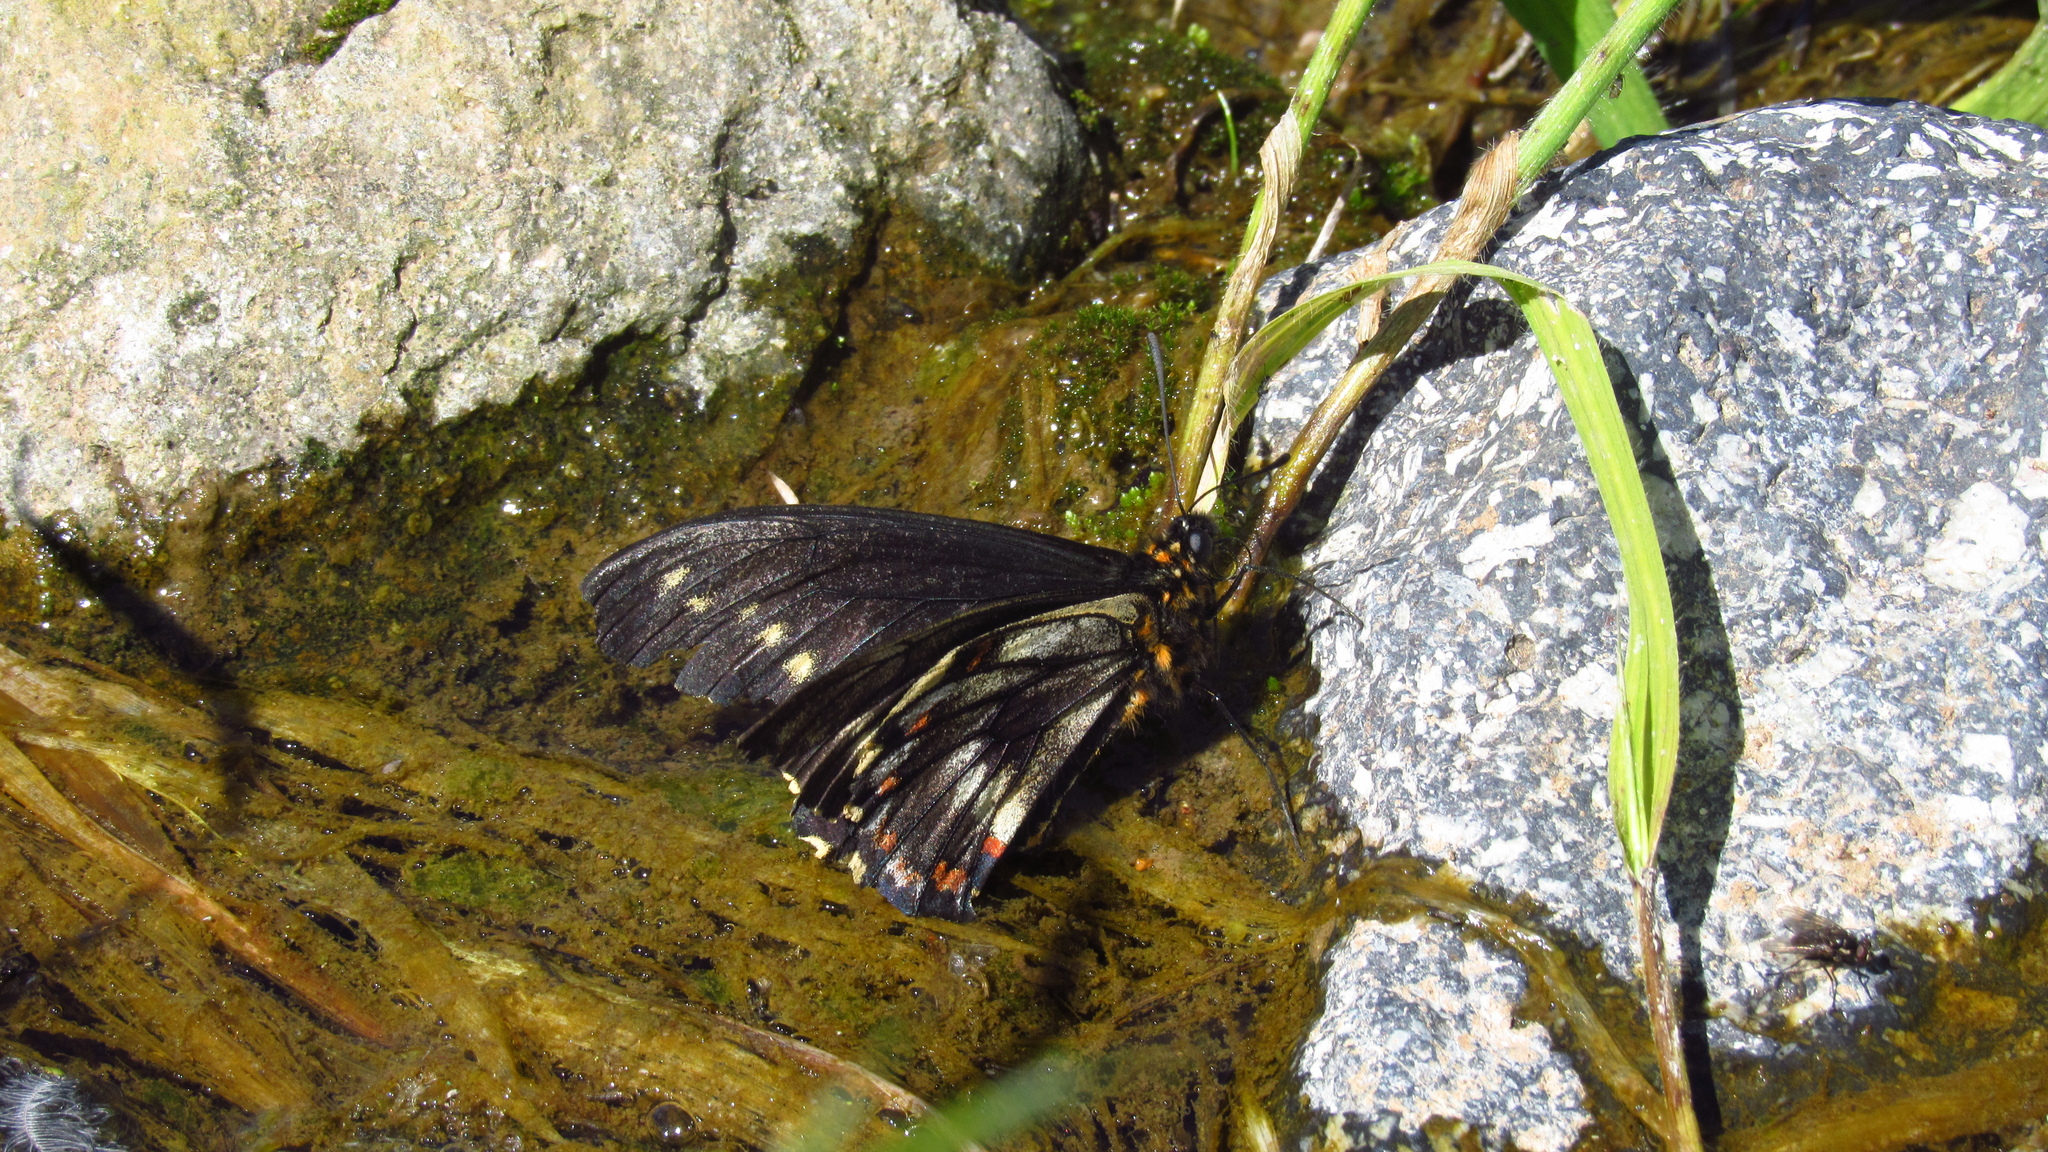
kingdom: Animalia
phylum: Arthropoda
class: Insecta
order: Lepidoptera
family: Papilionidae
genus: Battus
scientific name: Battus polydamas
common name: Polydamas swallowtail
